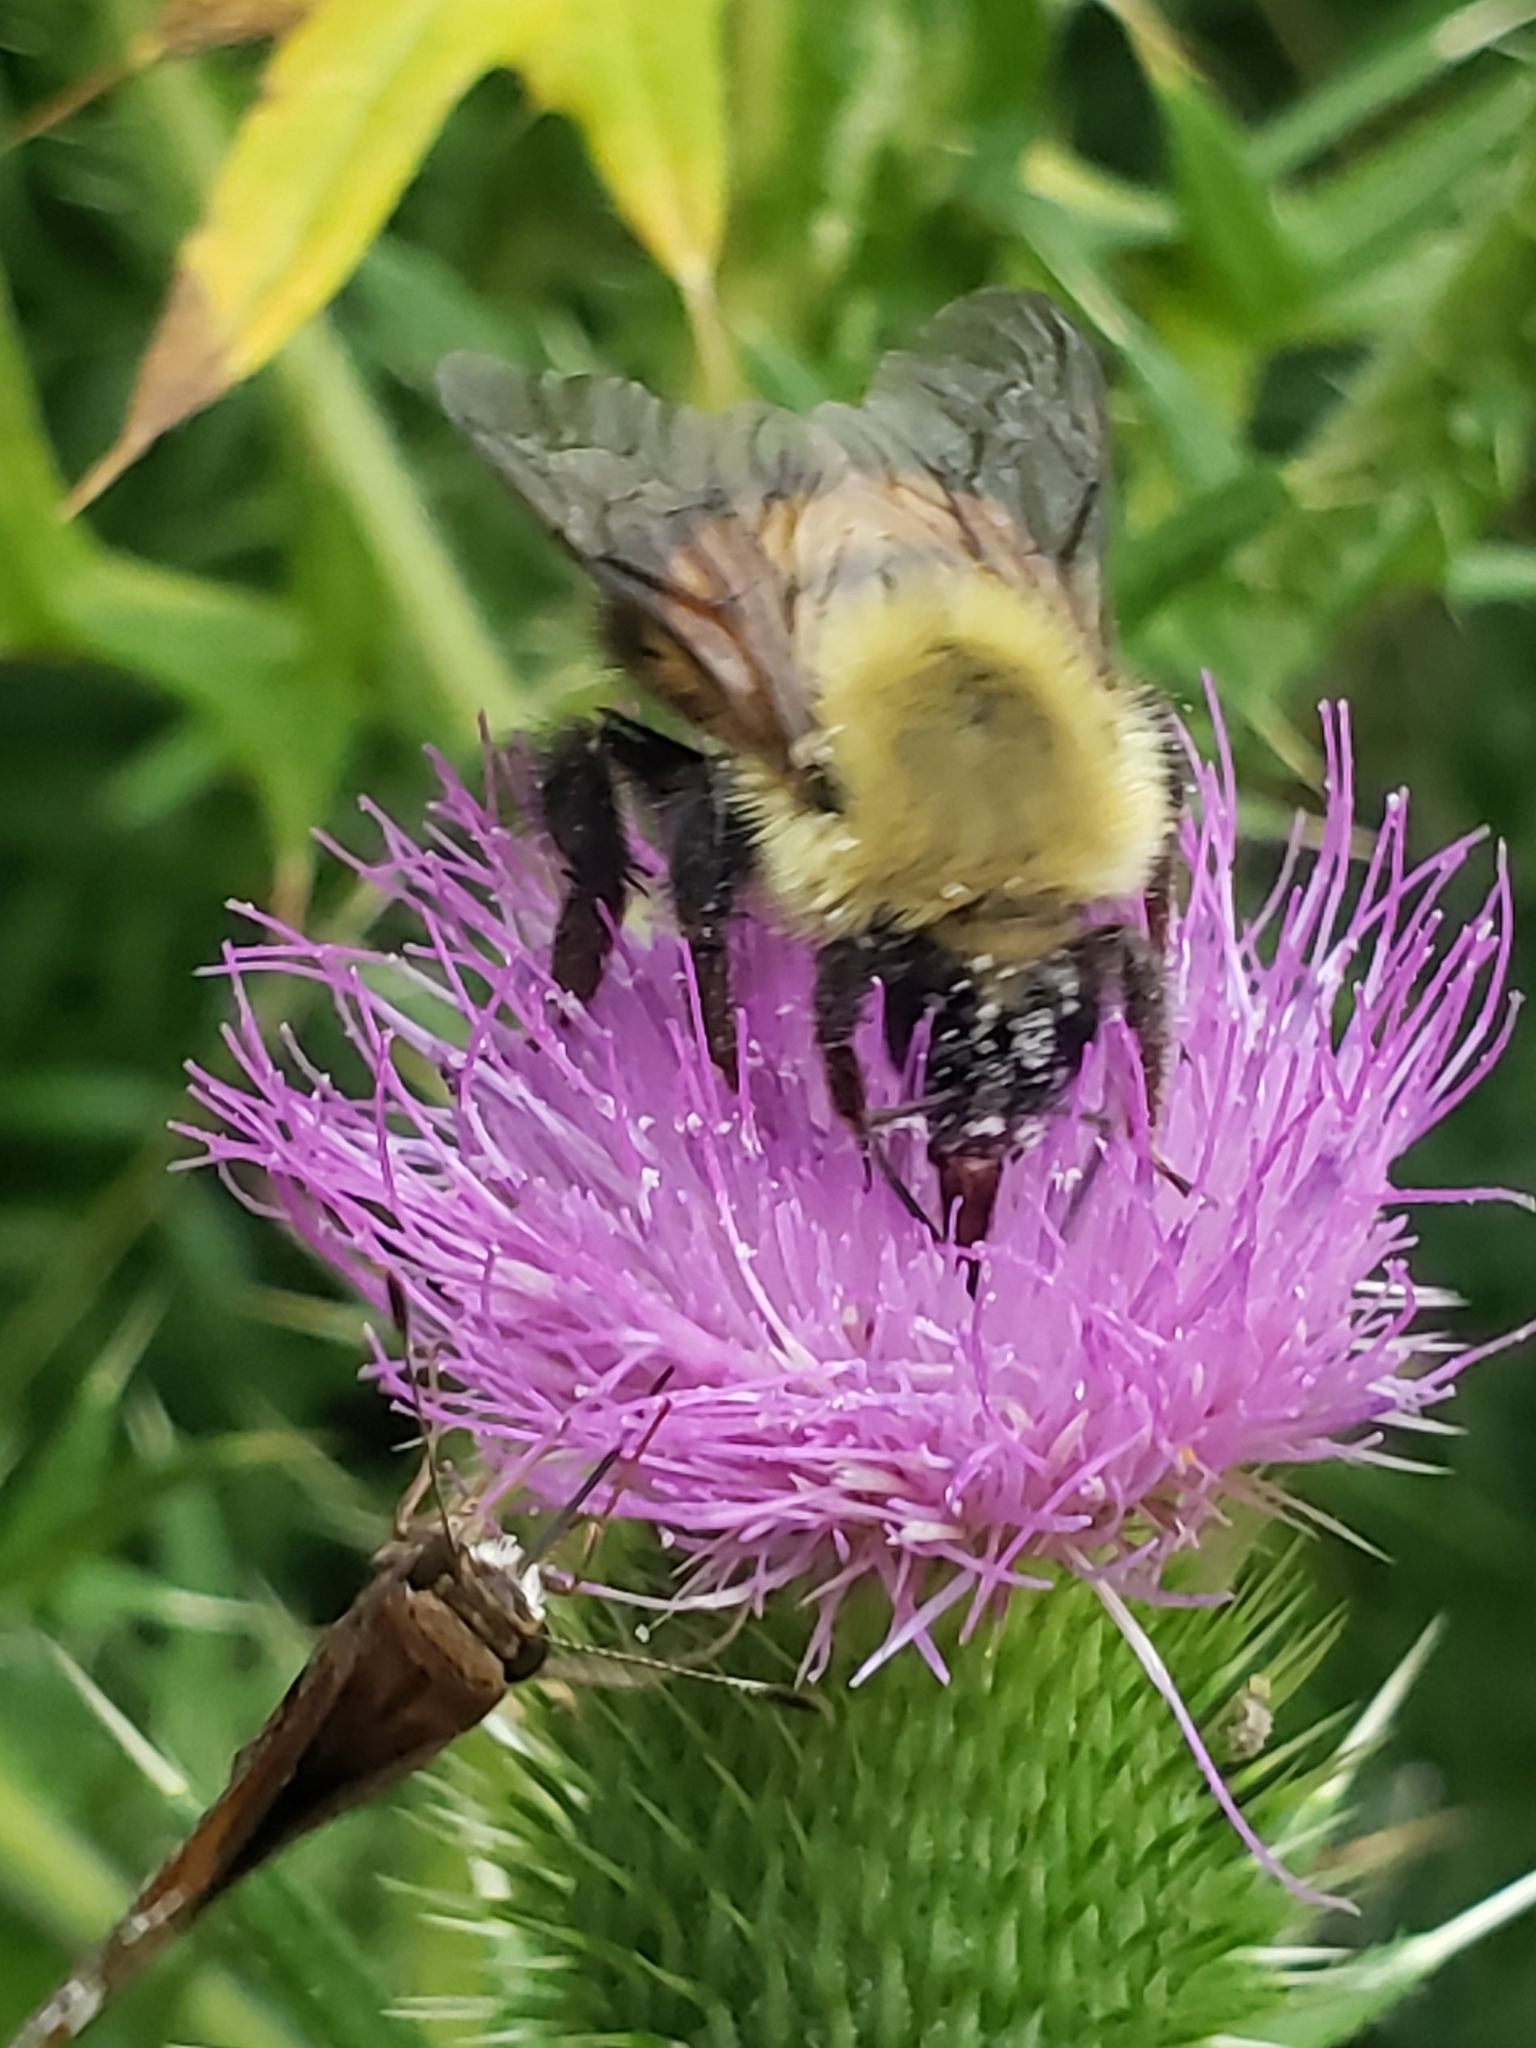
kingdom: Animalia
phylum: Arthropoda
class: Insecta
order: Hymenoptera
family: Apidae
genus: Bombus
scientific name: Bombus perplexus
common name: Confusing bumble bee
